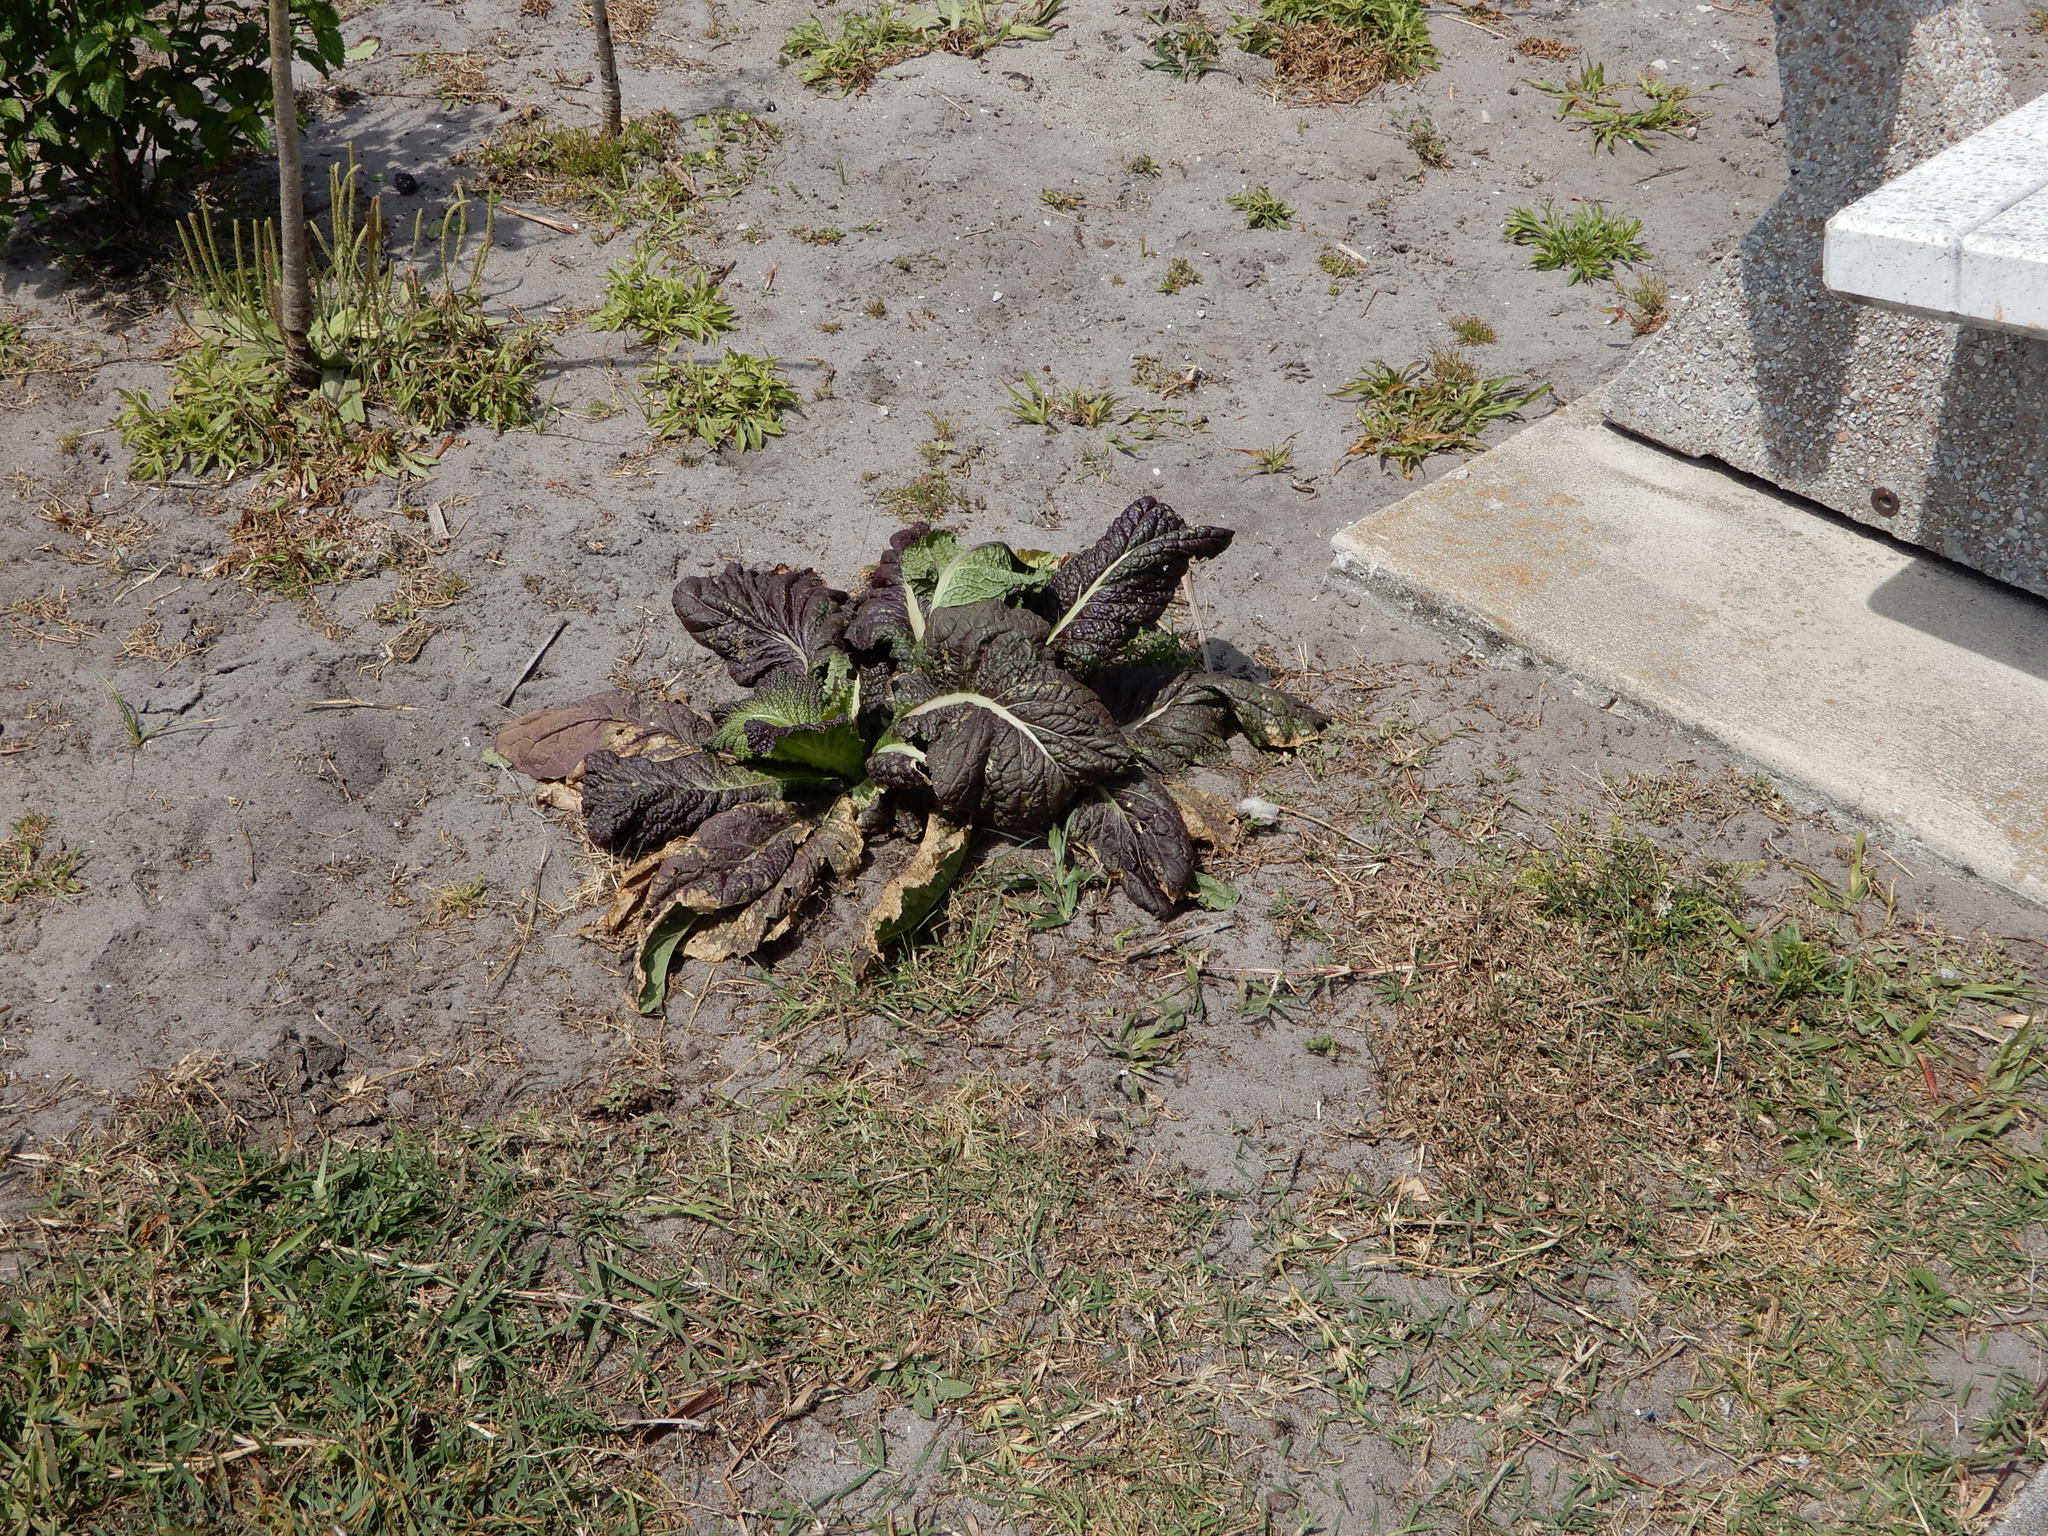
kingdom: Plantae
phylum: Tracheophyta
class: Magnoliopsida
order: Asterales
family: Asteraceae
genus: Lactuca
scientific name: Lactuca sativa
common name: Garden lettuce
